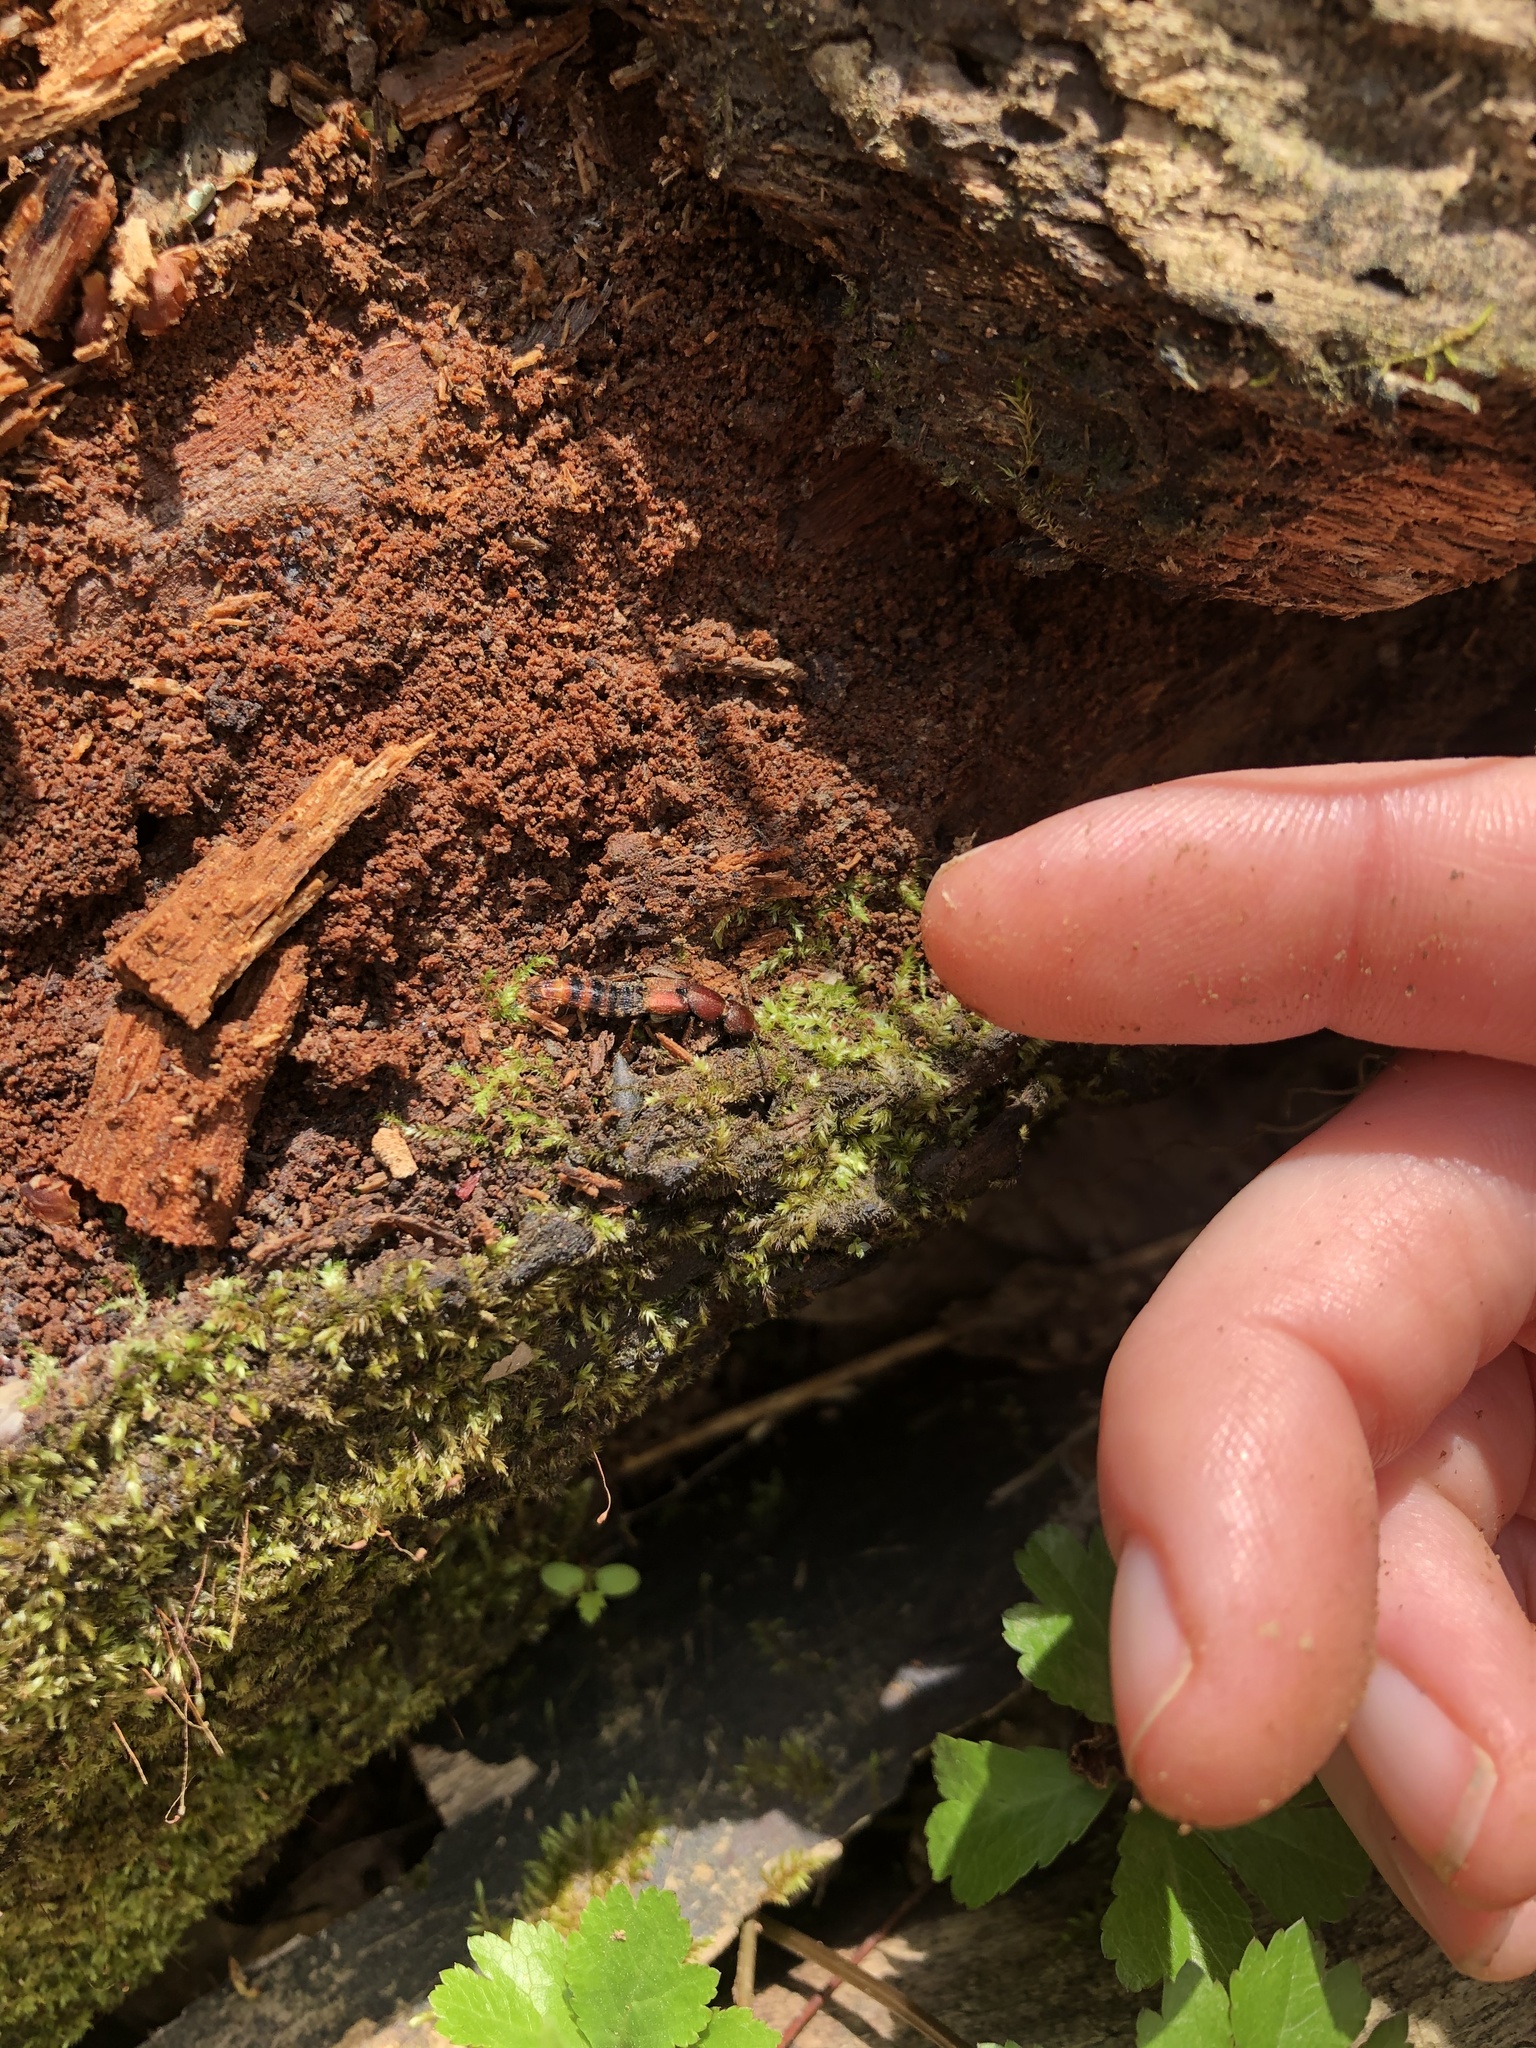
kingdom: Animalia
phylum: Arthropoda
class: Insecta
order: Coleoptera
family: Staphylinidae
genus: Platydracus
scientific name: Platydracus cinnamopterus
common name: Cinnamon rove beetle
